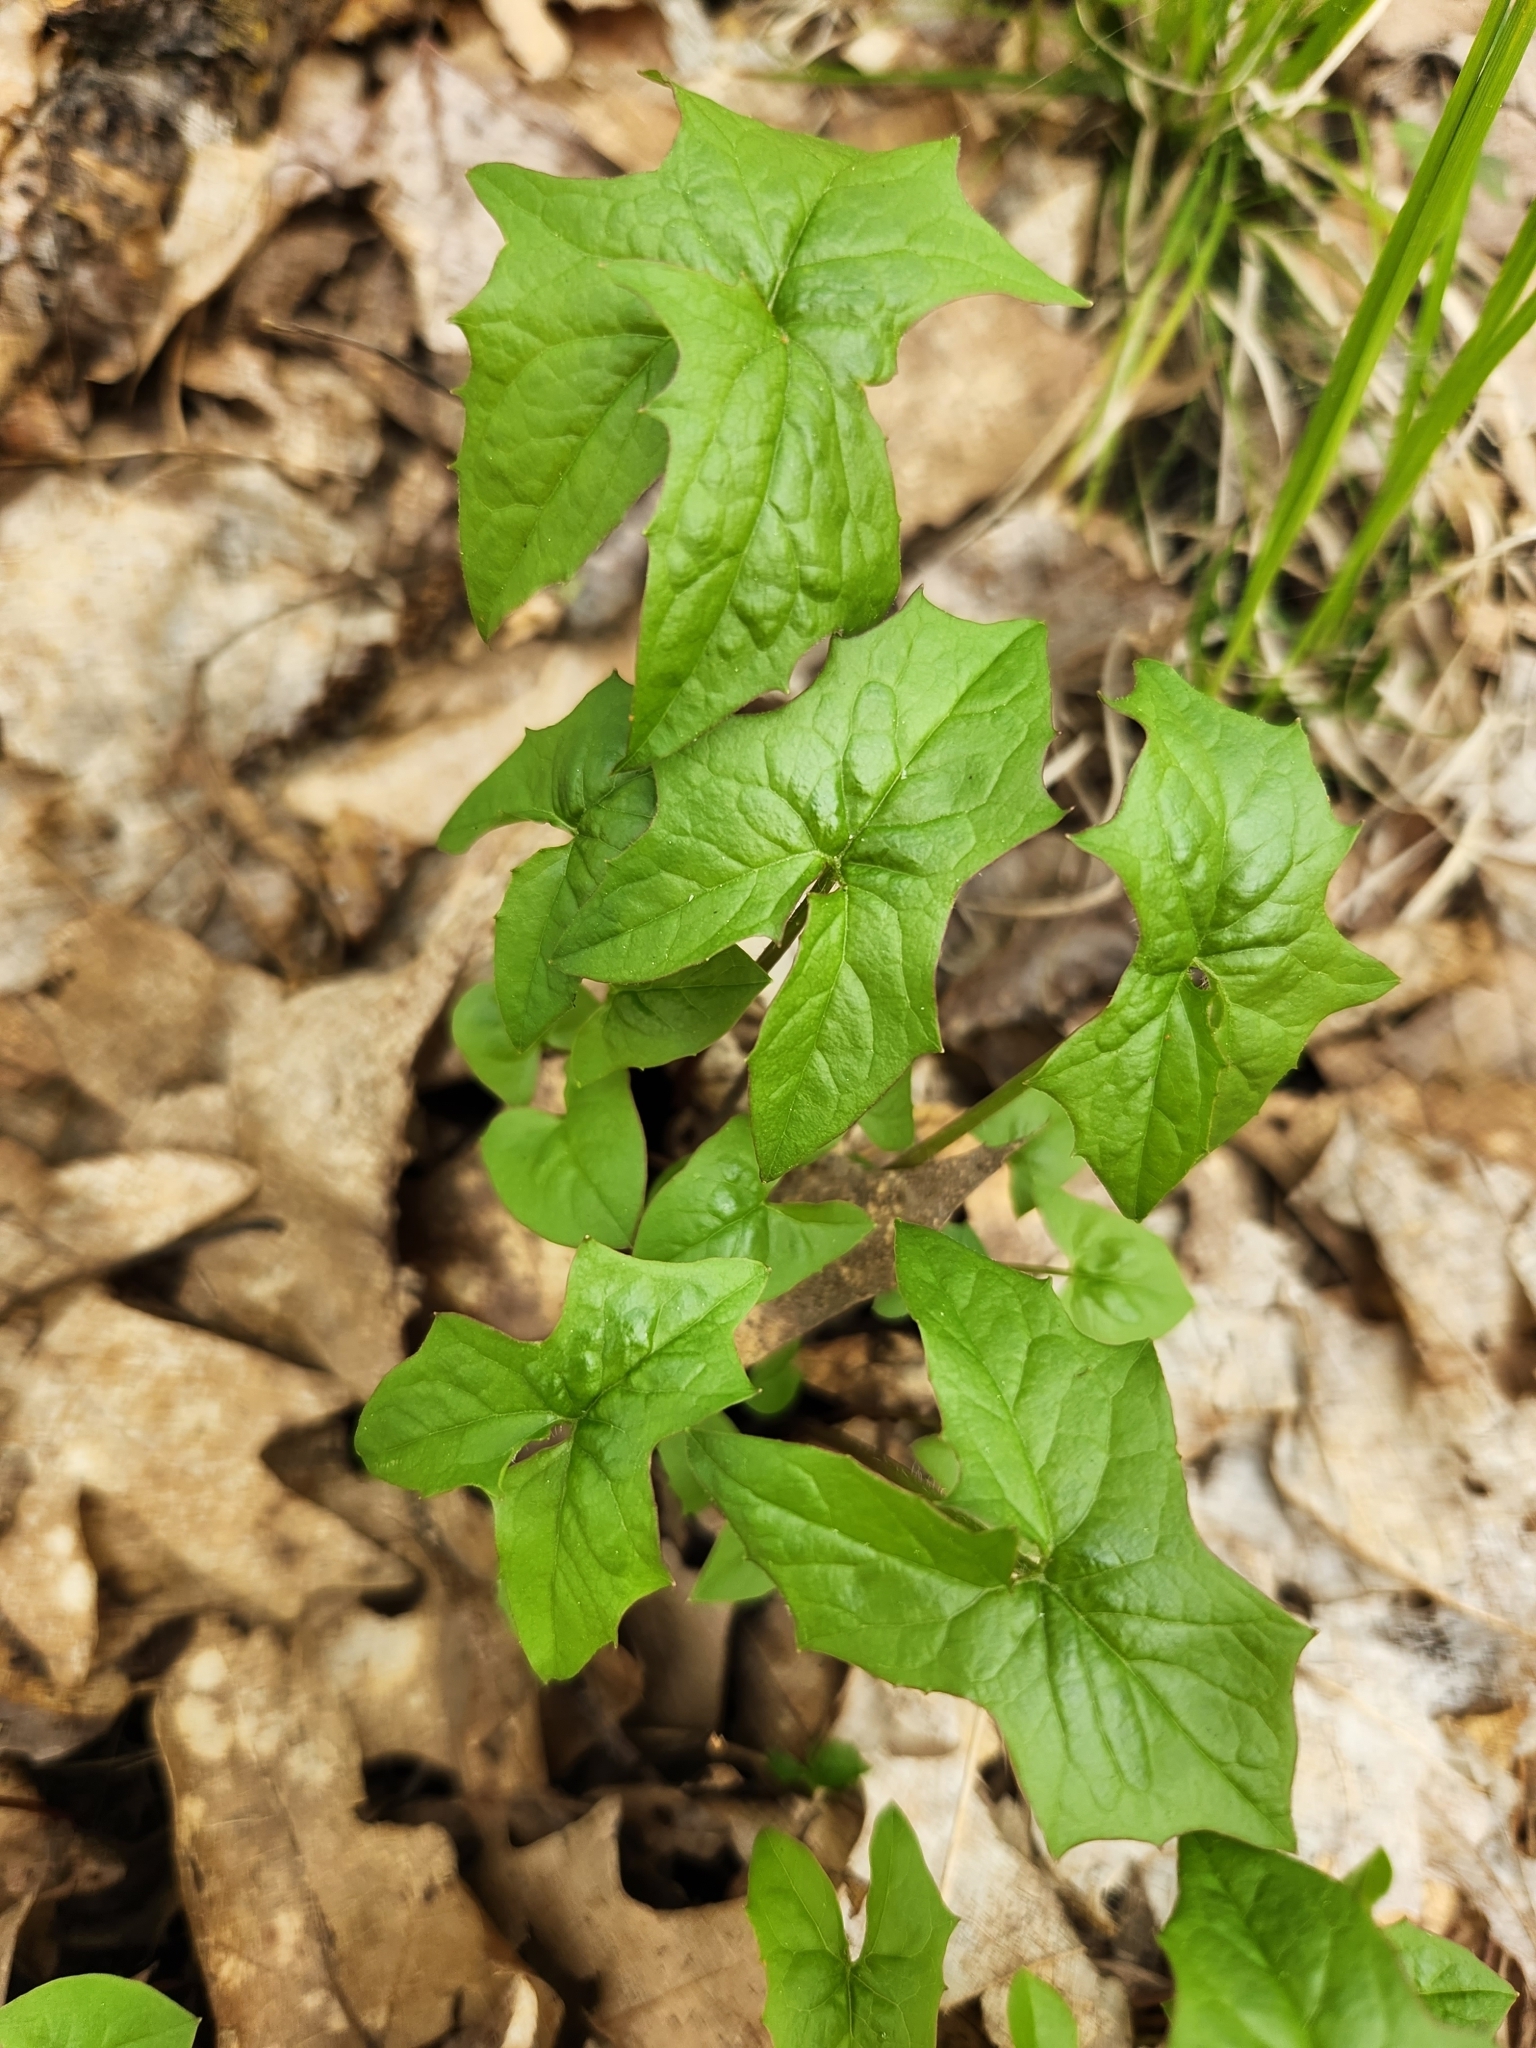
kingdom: Plantae
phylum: Tracheophyta
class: Magnoliopsida
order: Asterales
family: Asteraceae
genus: Nabalus
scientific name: Nabalus albus
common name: White rattlesnakeroot
